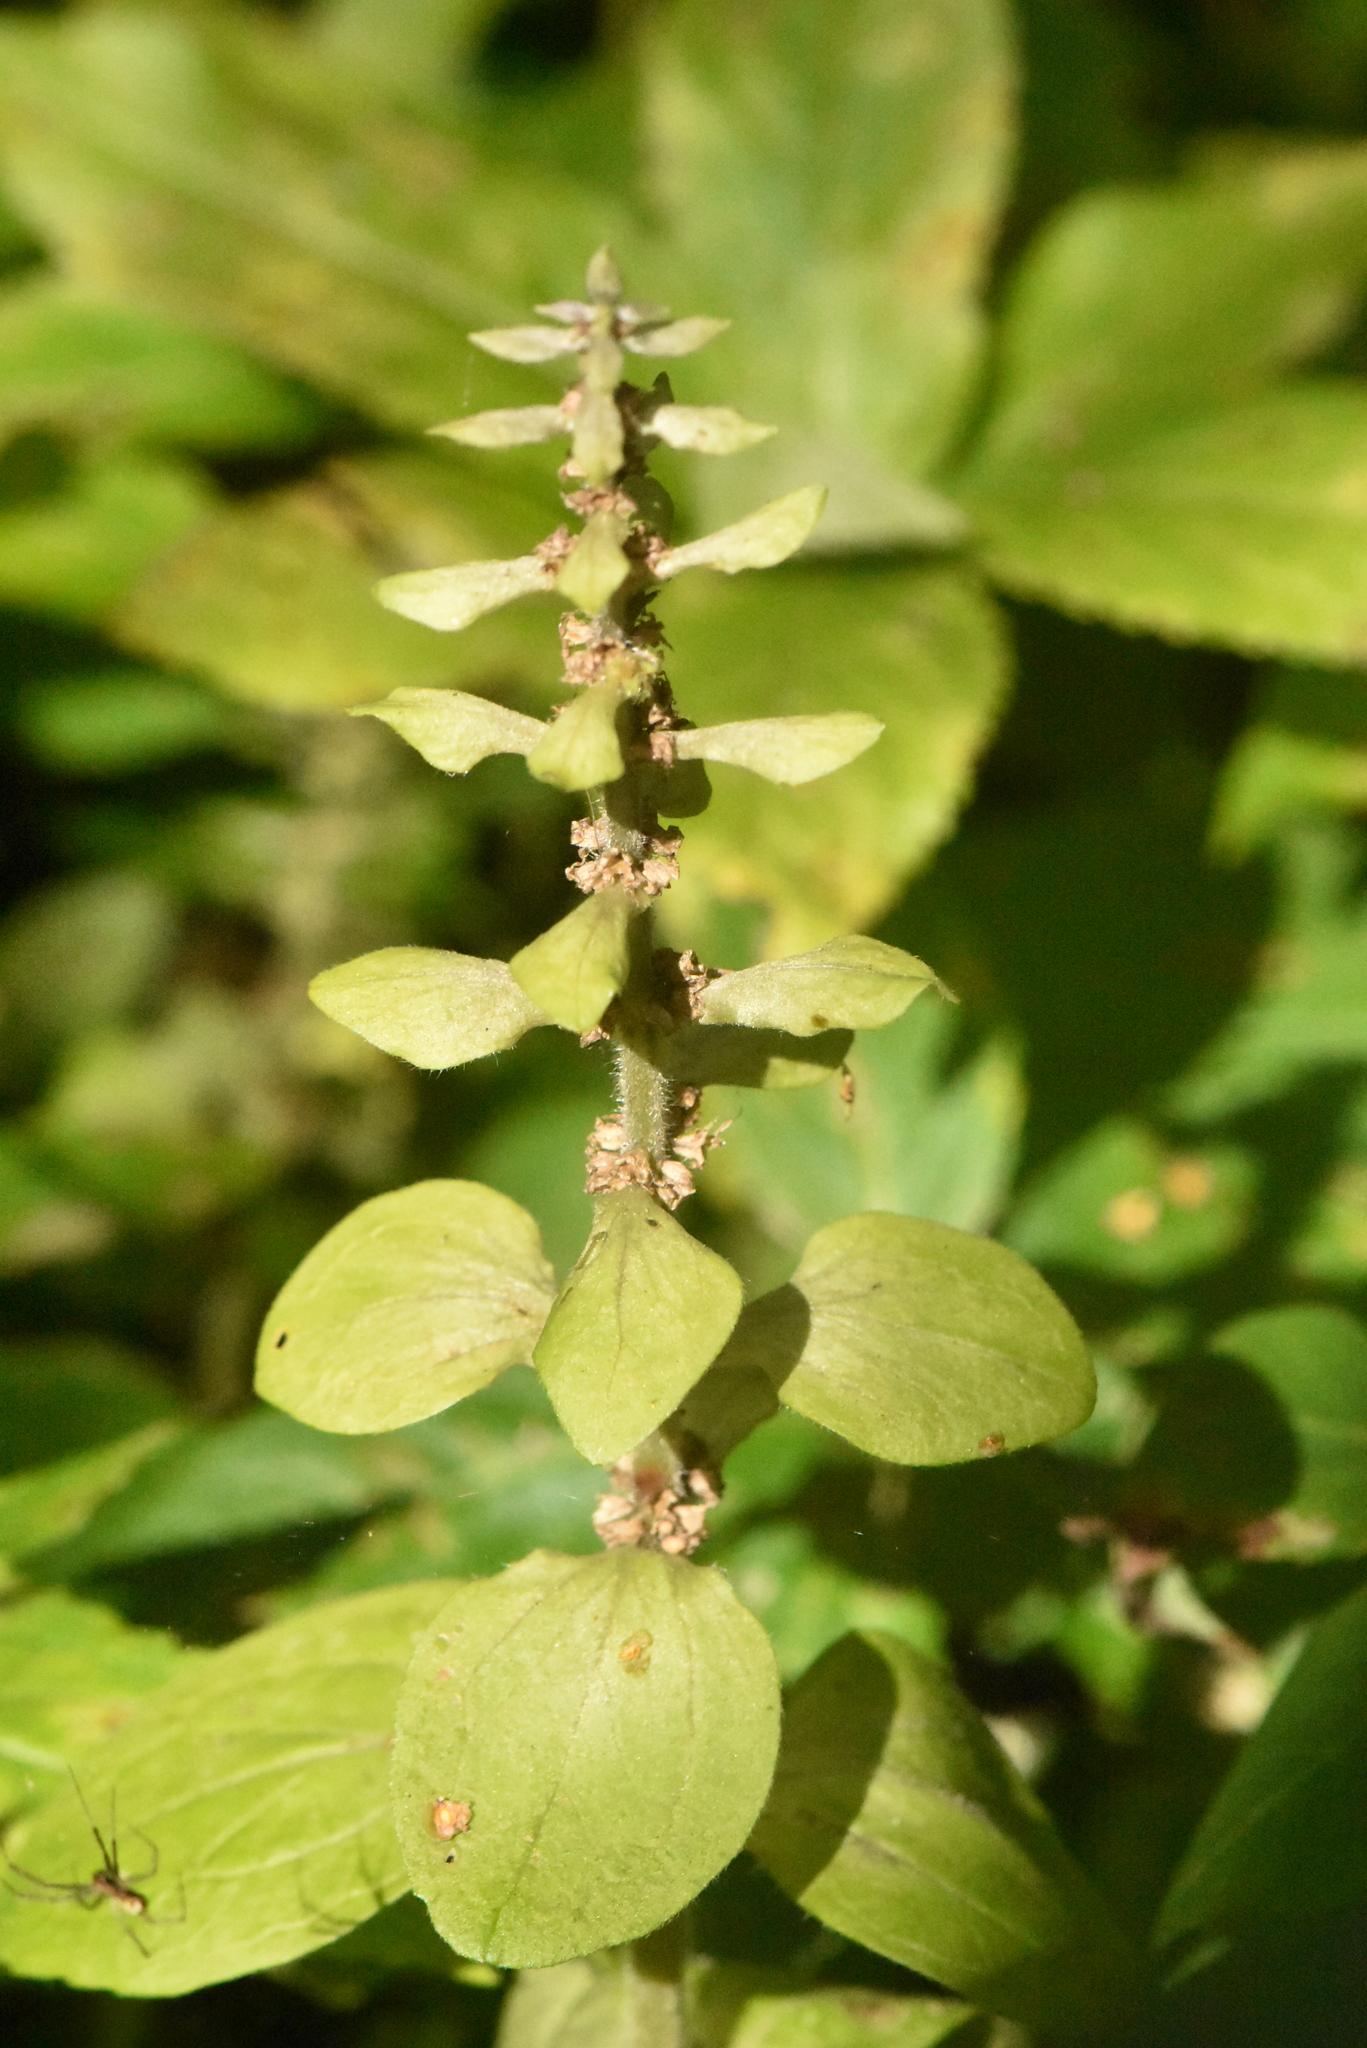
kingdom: Plantae
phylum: Tracheophyta
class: Magnoliopsida
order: Lamiales
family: Lamiaceae
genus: Ajuga
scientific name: Ajuga reptans
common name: Bugle
